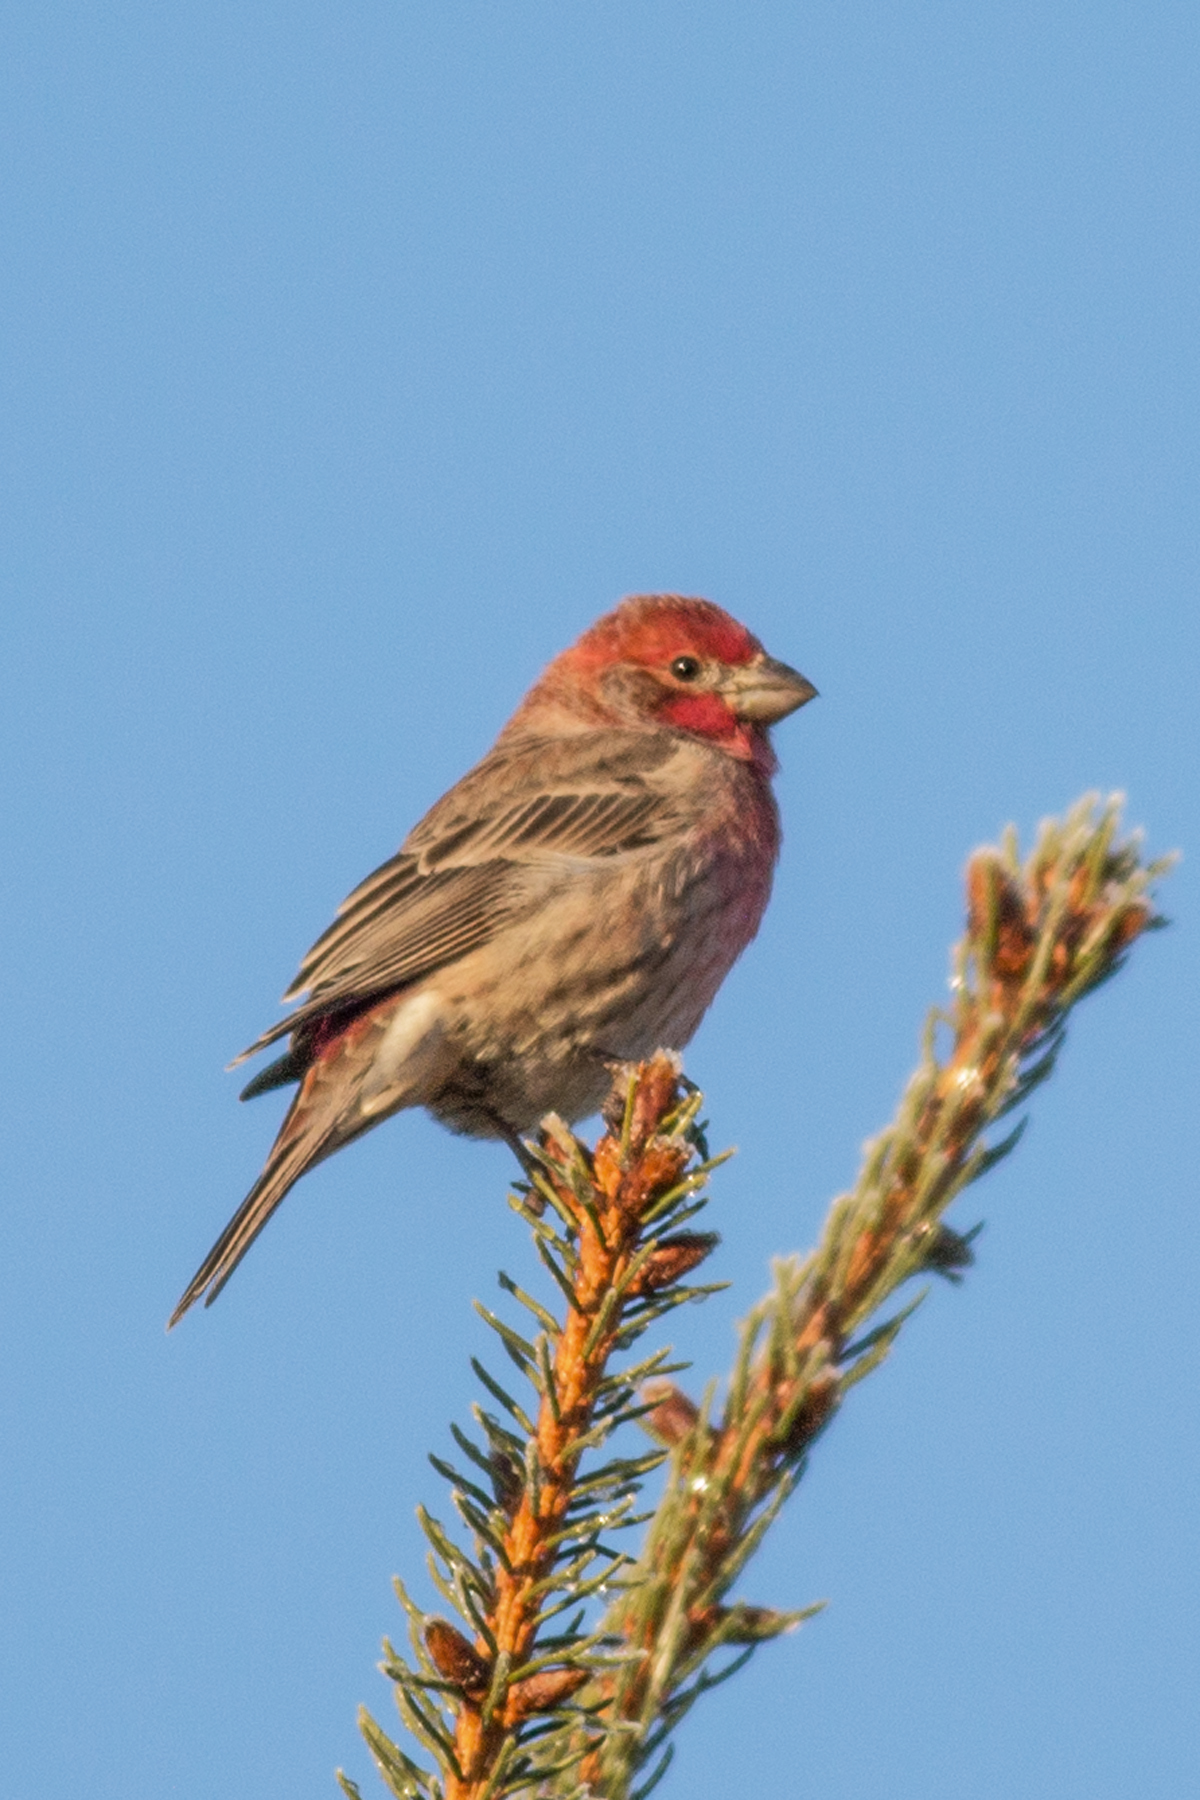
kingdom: Animalia
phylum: Chordata
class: Aves
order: Passeriformes
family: Fringillidae
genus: Haemorhous
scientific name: Haemorhous mexicanus
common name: House finch
